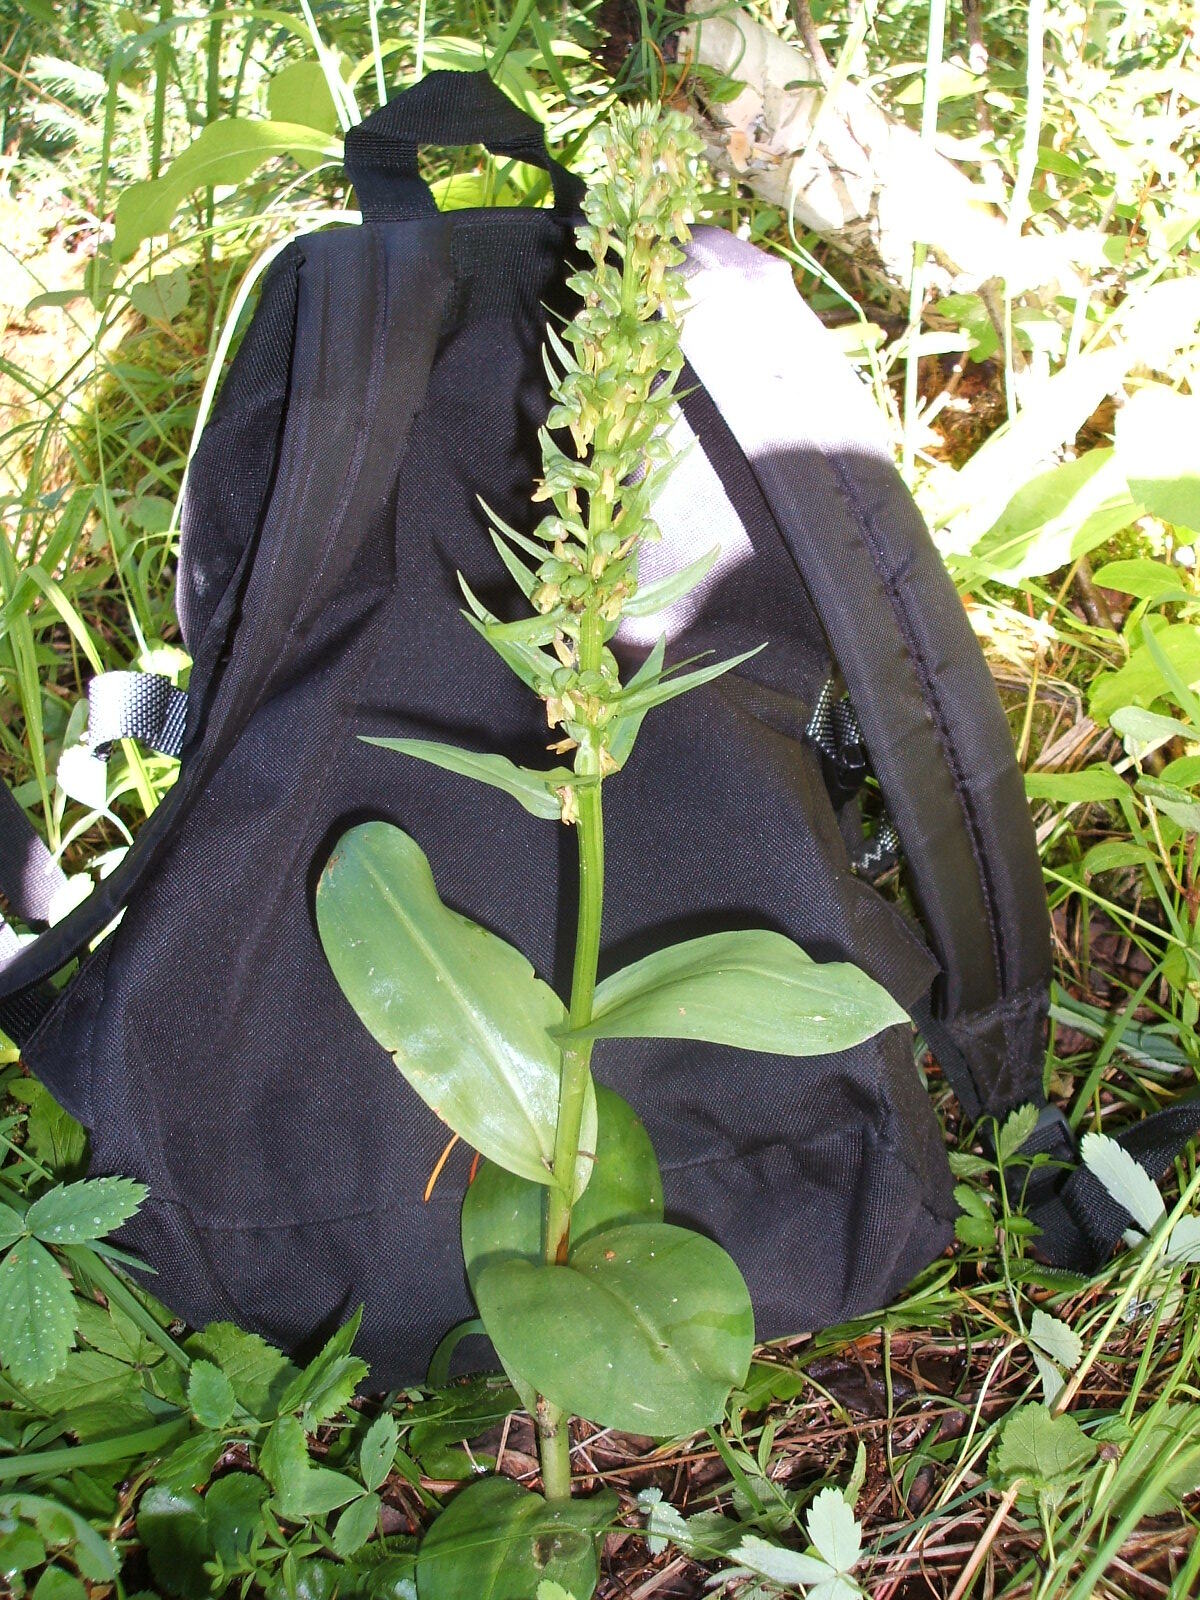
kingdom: Plantae
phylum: Tracheophyta
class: Liliopsida
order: Asparagales
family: Orchidaceae
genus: Dactylorhiza
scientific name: Dactylorhiza viridis
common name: Longbract frog orchid
